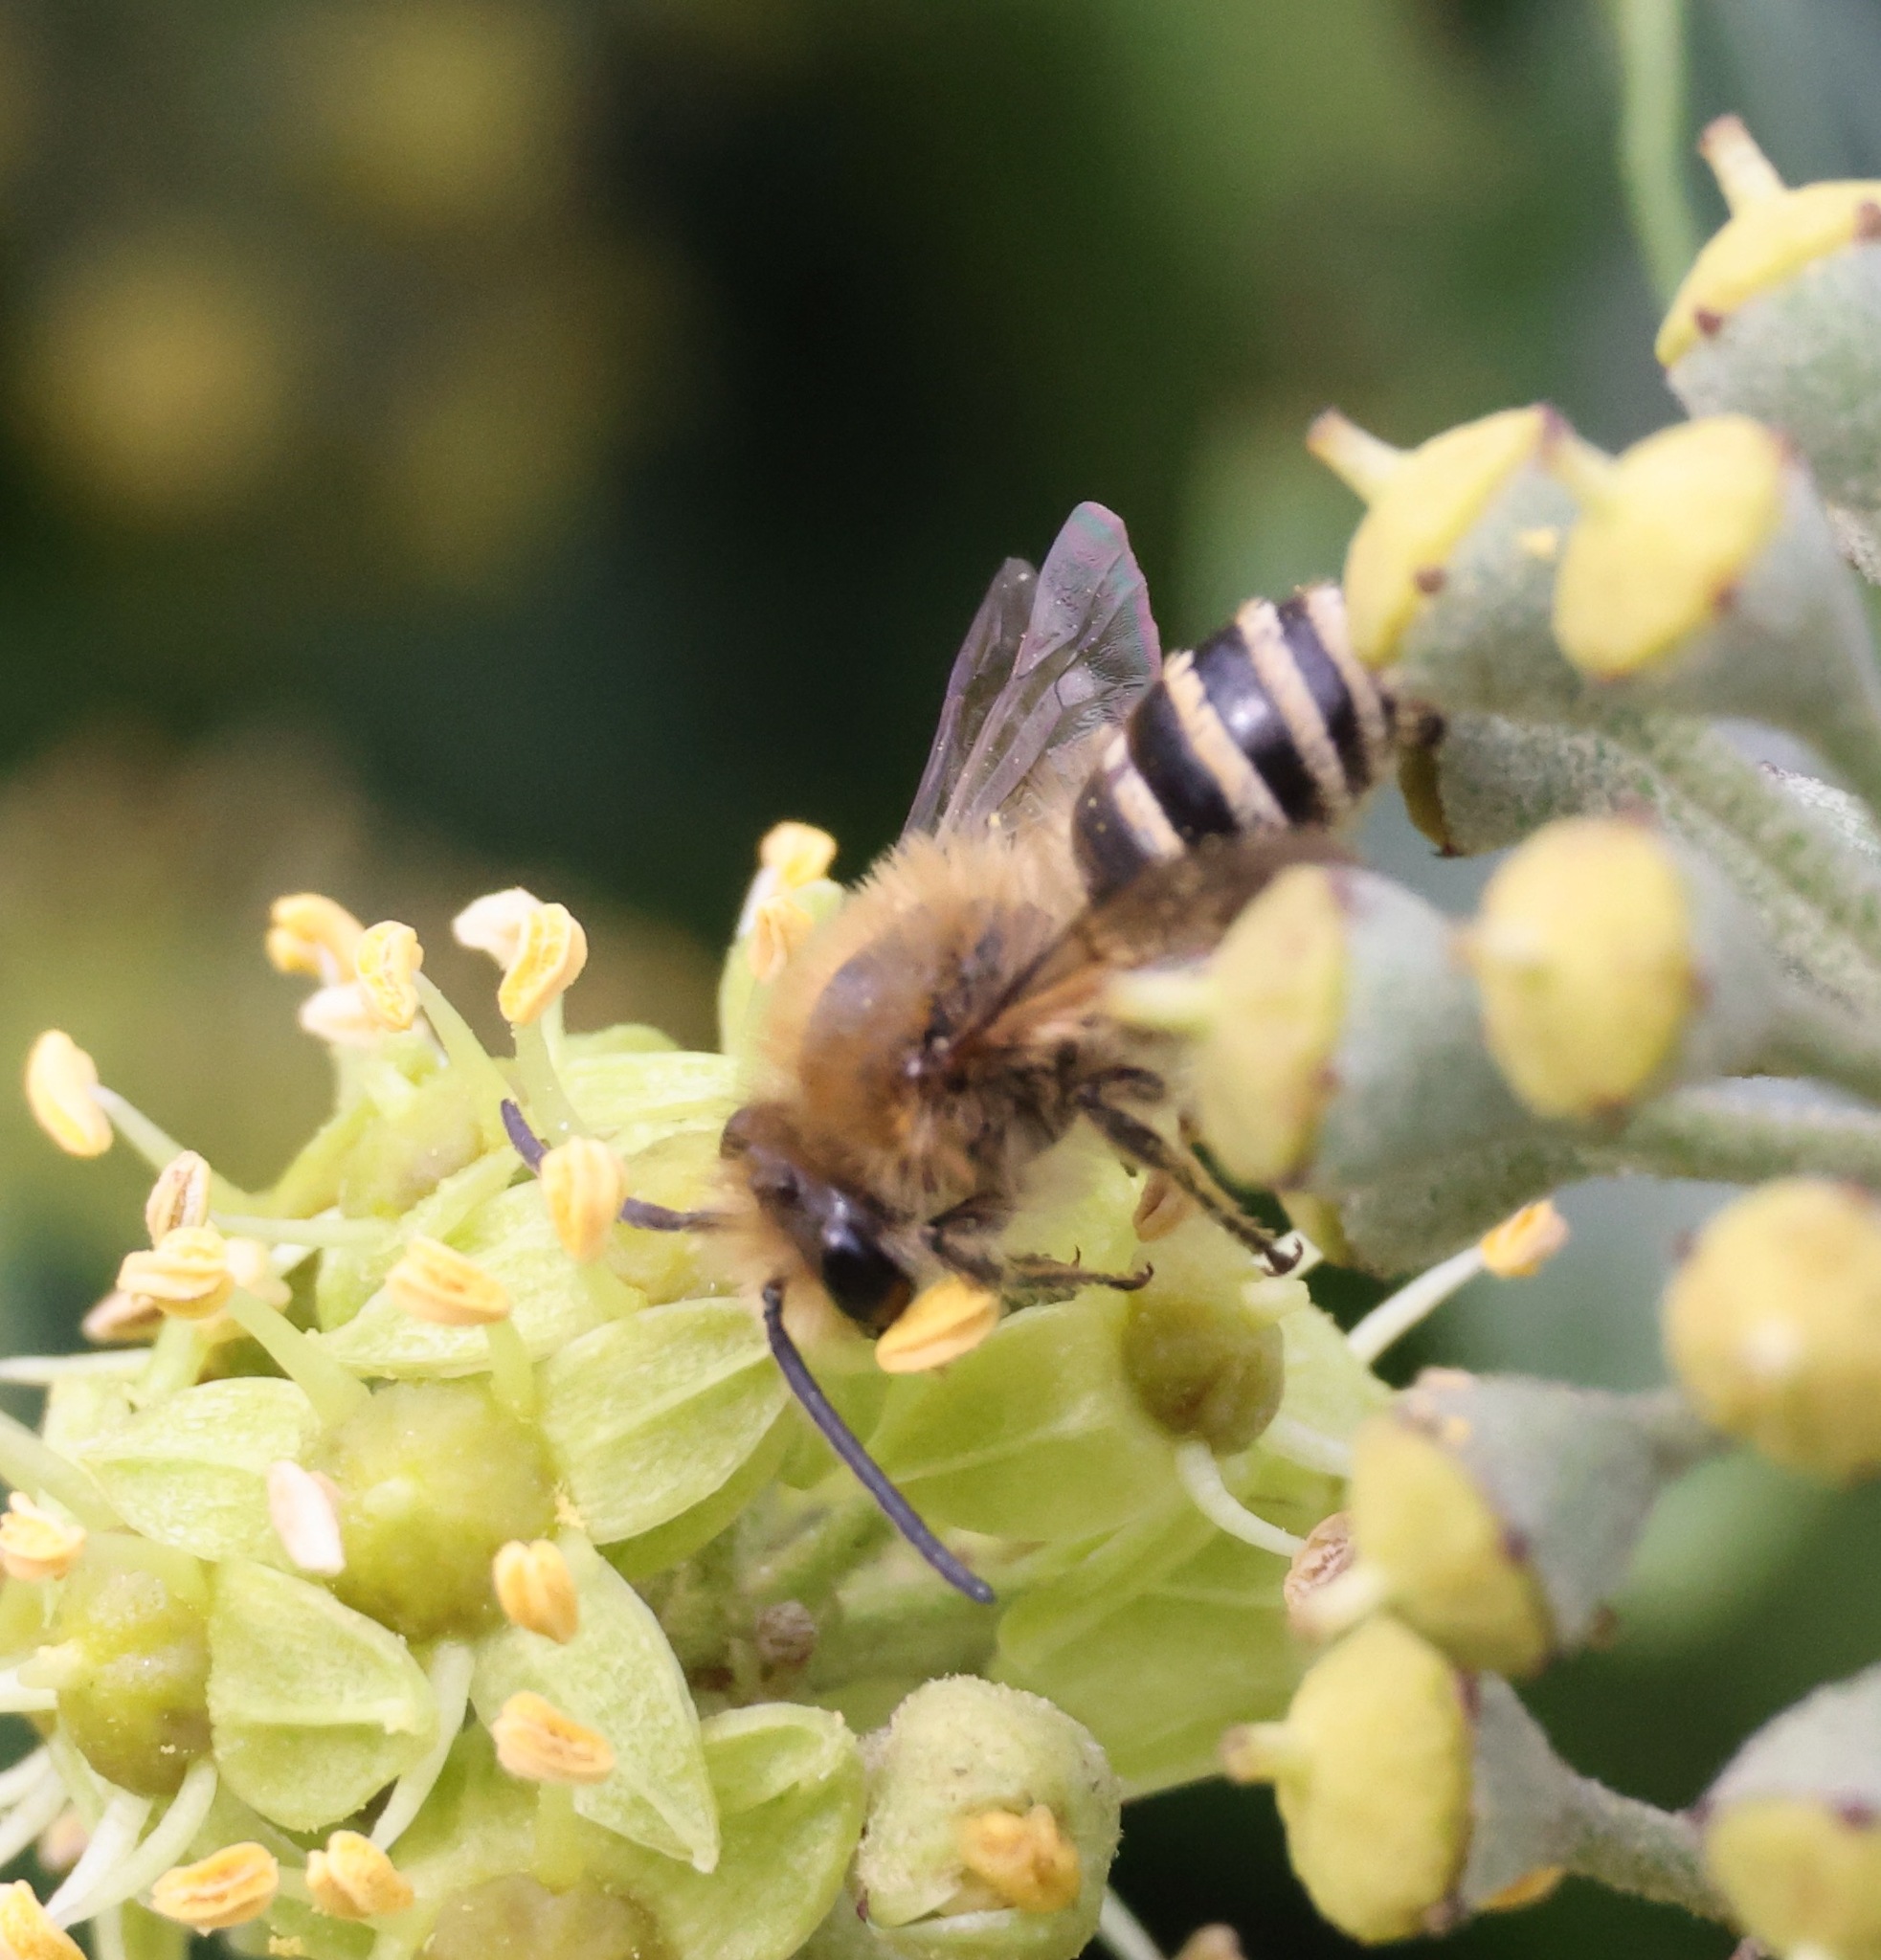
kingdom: Animalia
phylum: Arthropoda
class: Insecta
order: Hymenoptera
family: Colletidae
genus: Colletes
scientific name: Colletes hederae
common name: Ivy bee
